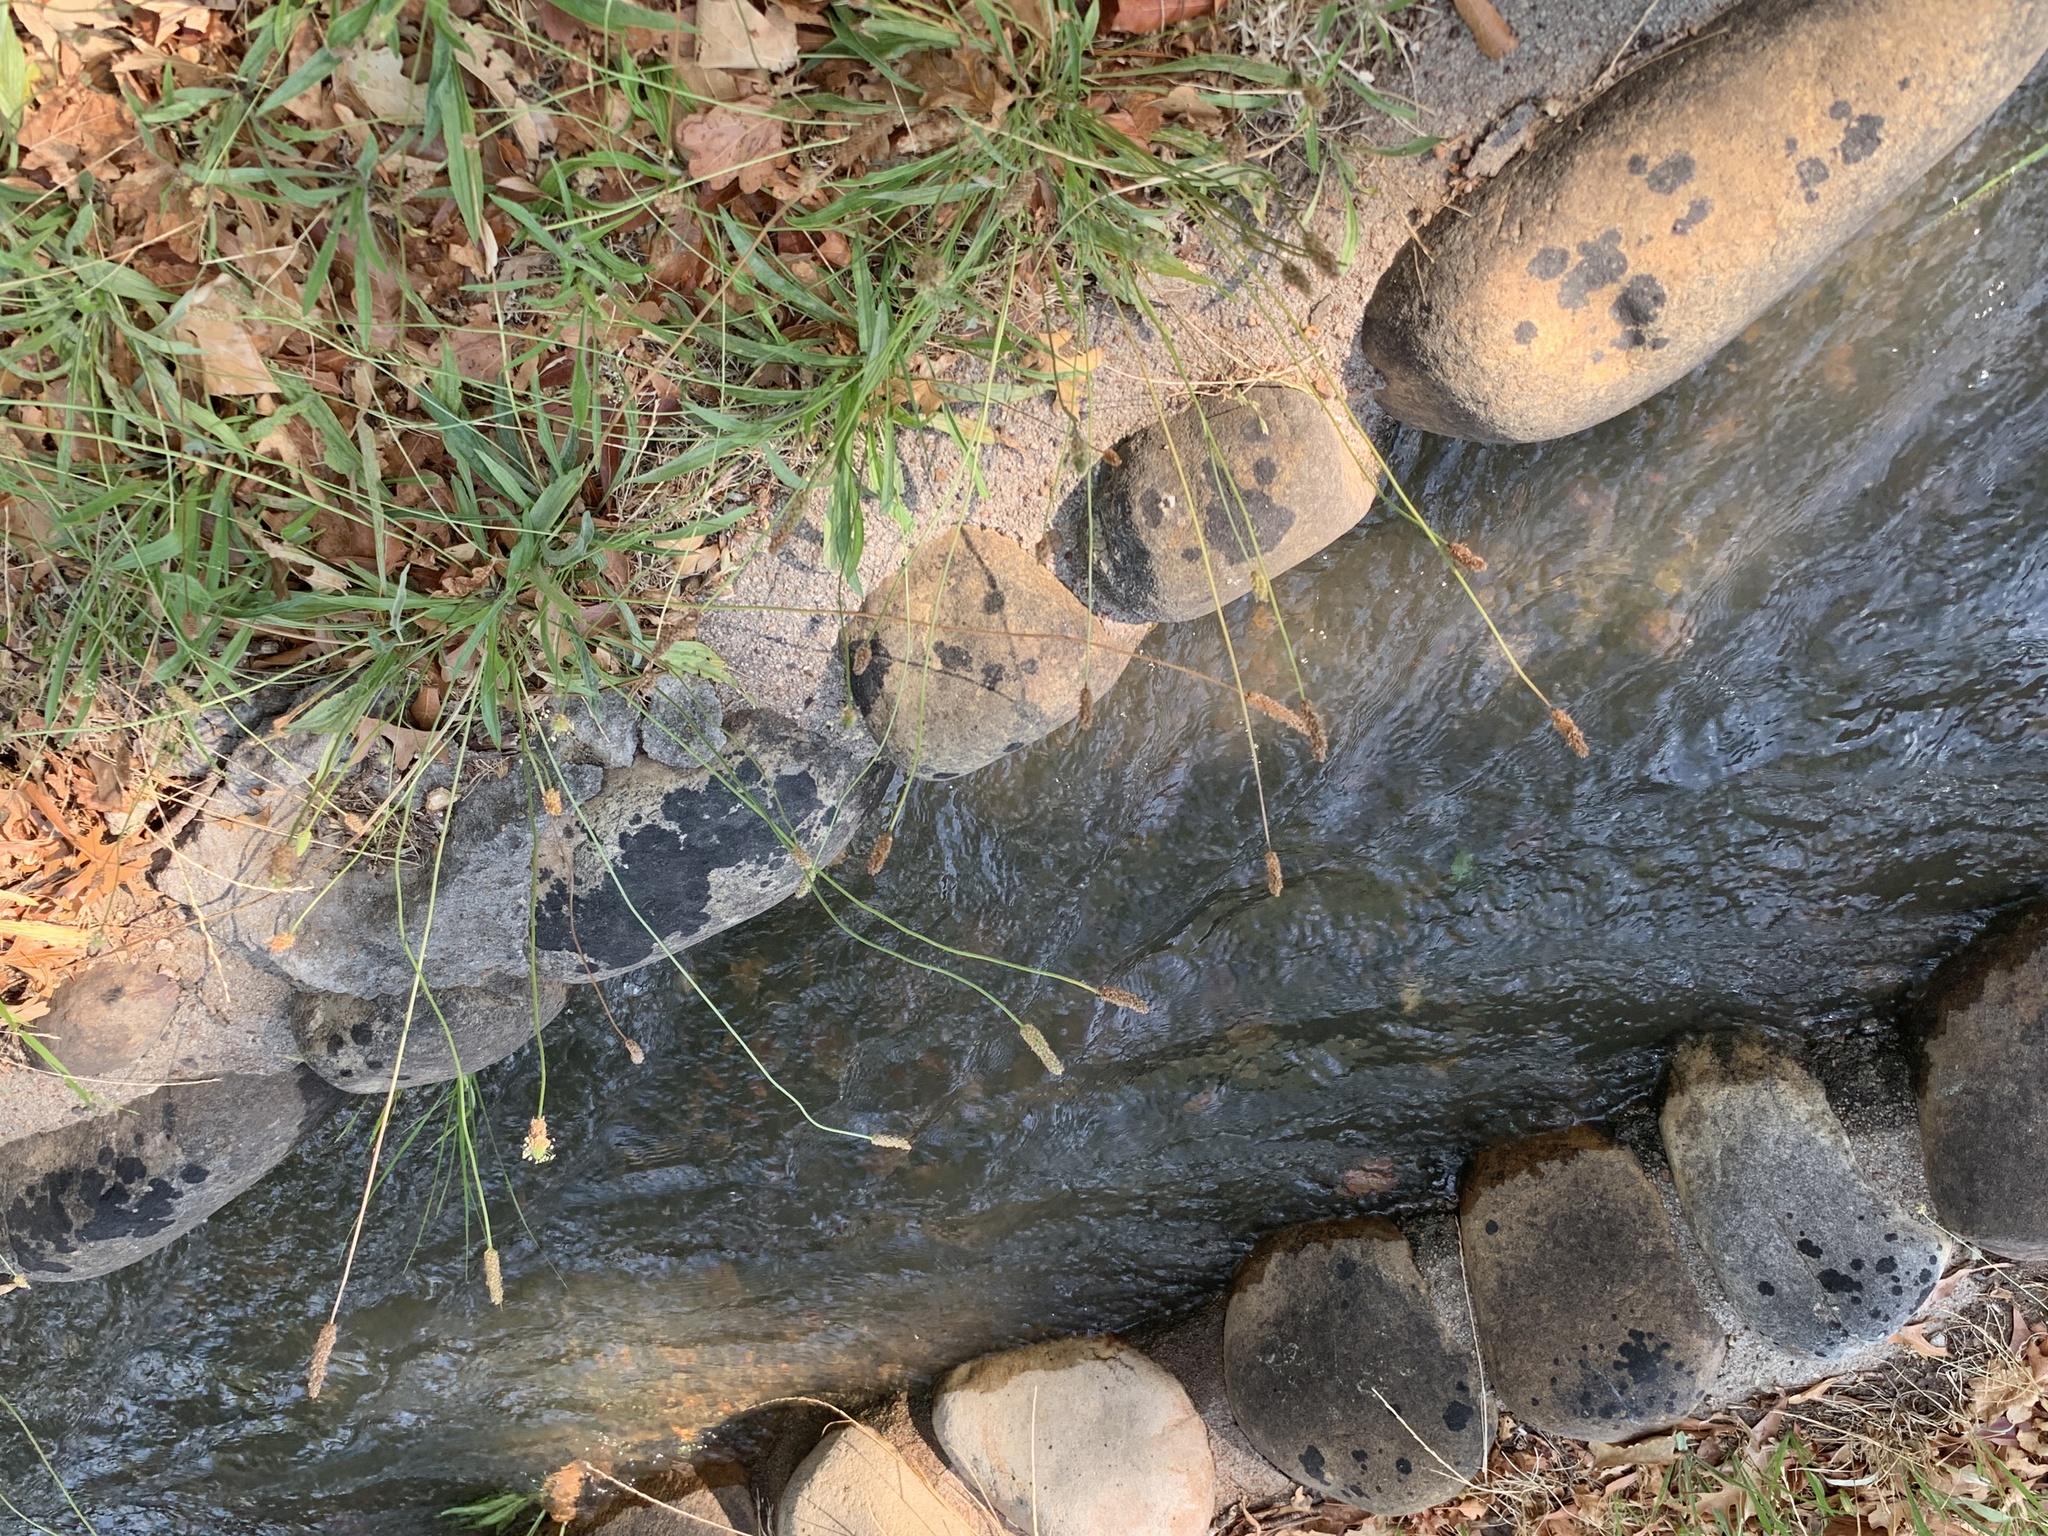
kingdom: Plantae
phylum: Tracheophyta
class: Magnoliopsida
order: Lamiales
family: Plantaginaceae
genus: Plantago
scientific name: Plantago lanceolata
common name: Ribwort plantain
